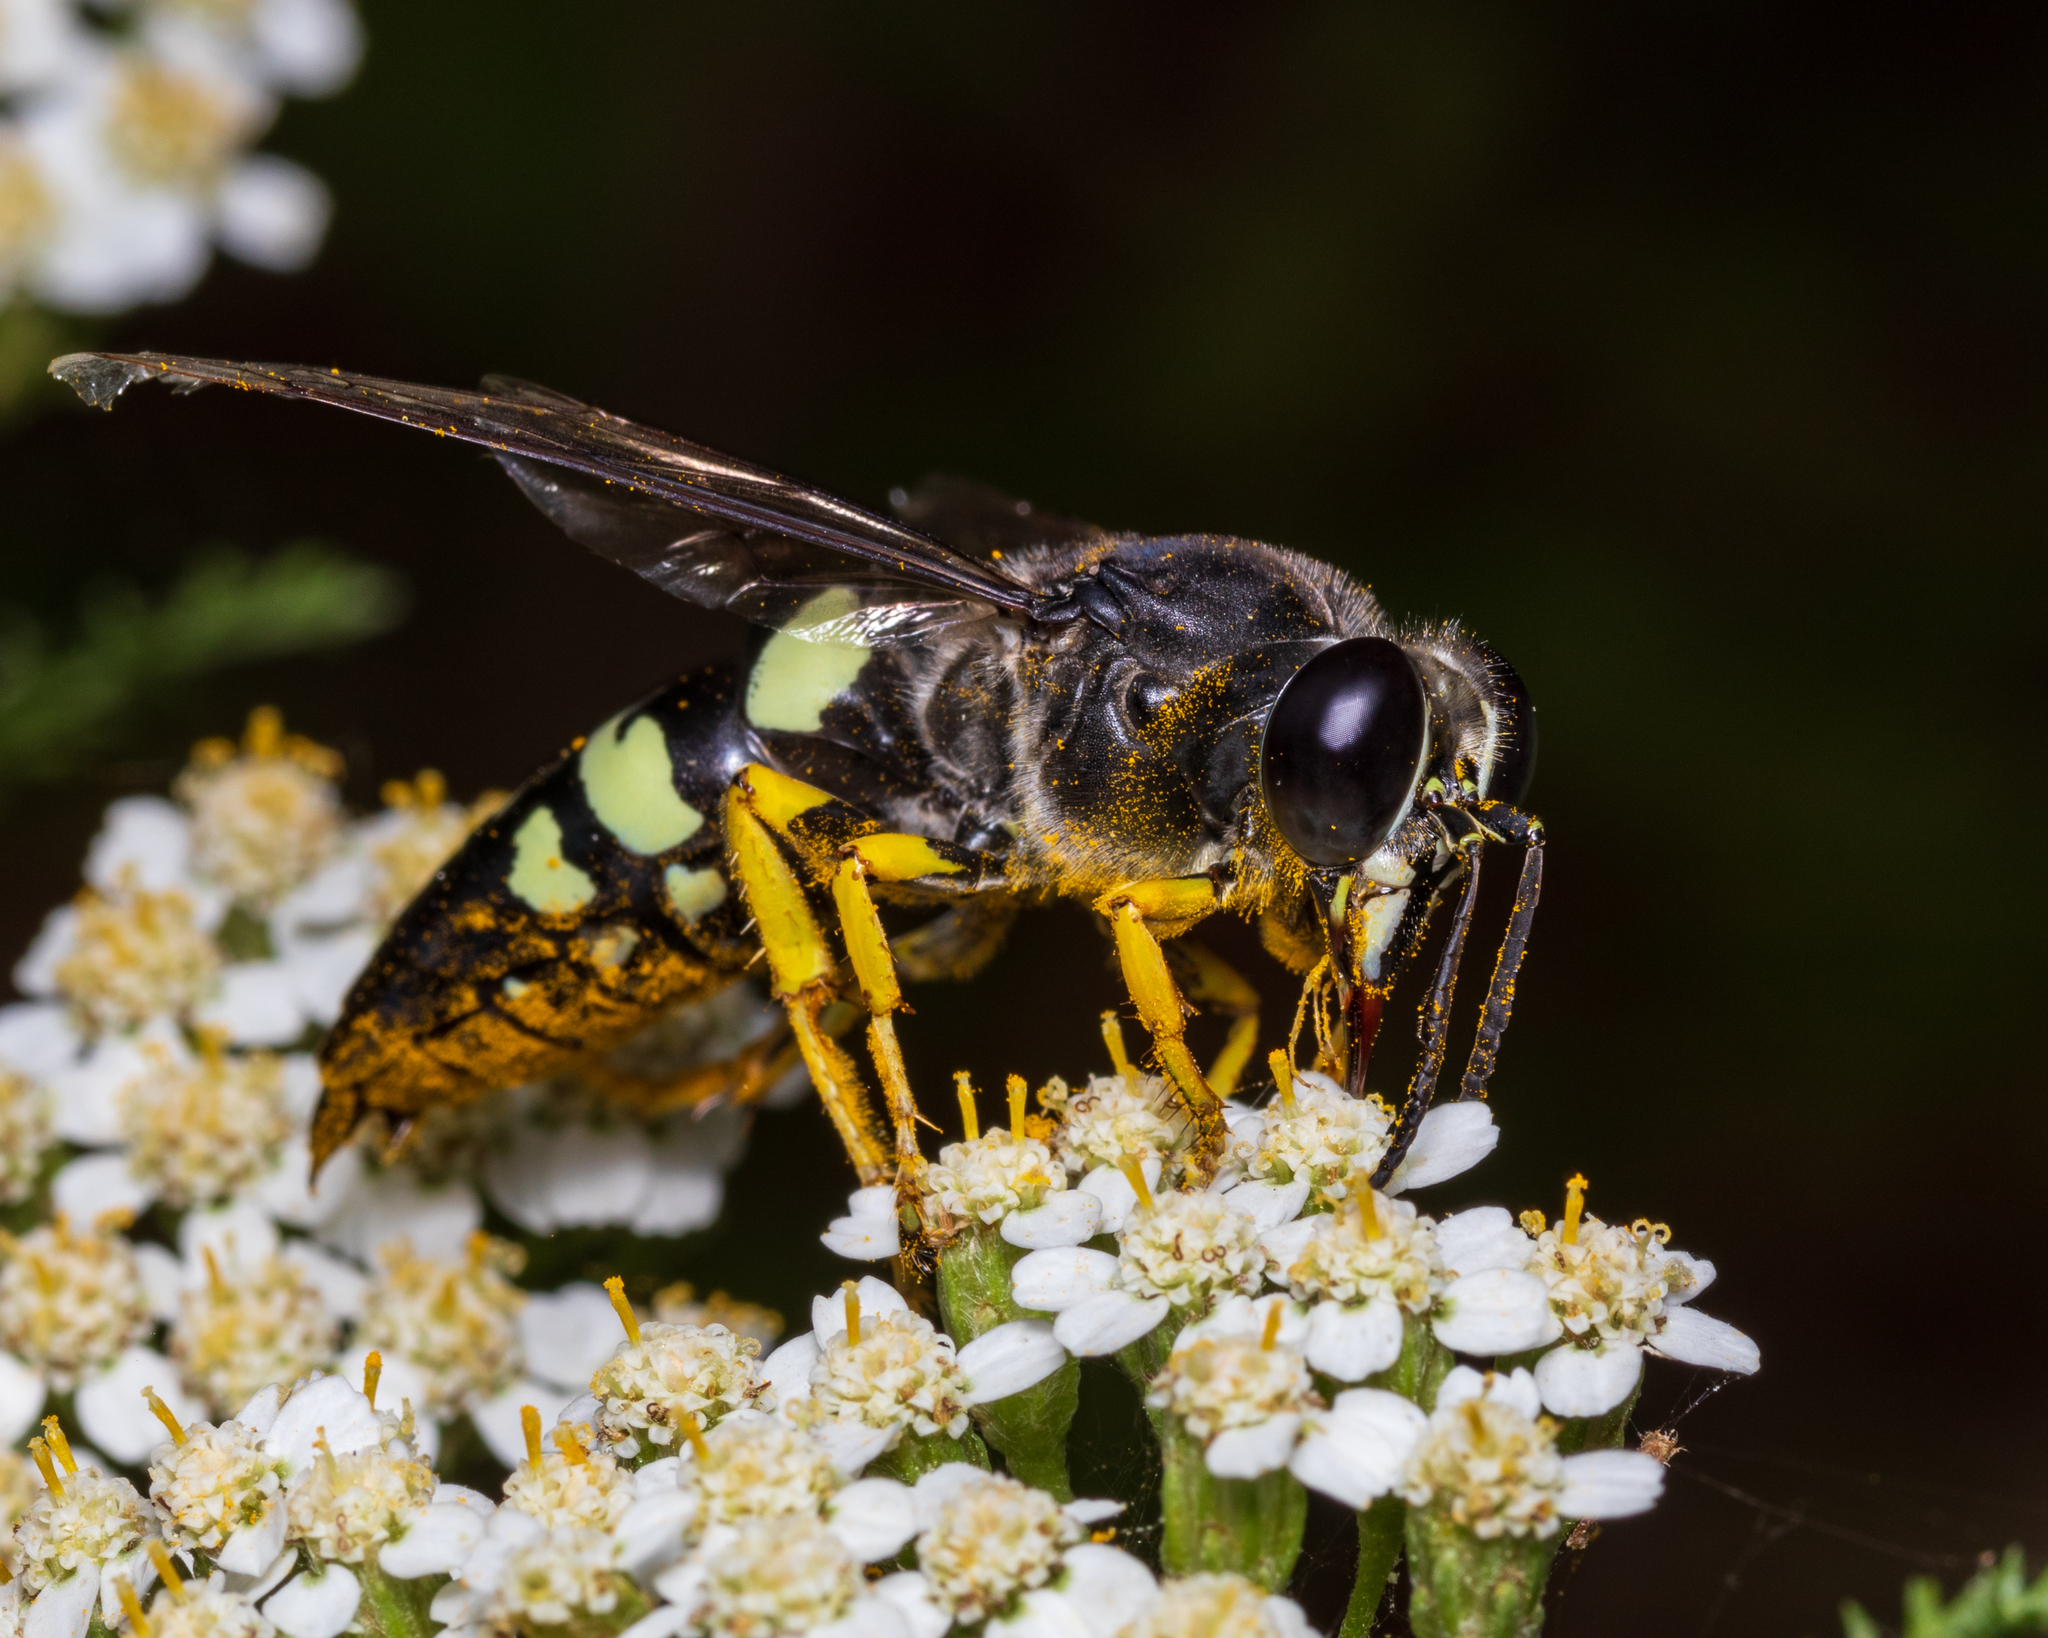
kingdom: Animalia
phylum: Arthropoda
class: Insecta
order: Hymenoptera
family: Crabronidae
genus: Stictia
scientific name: Stictia carolina
